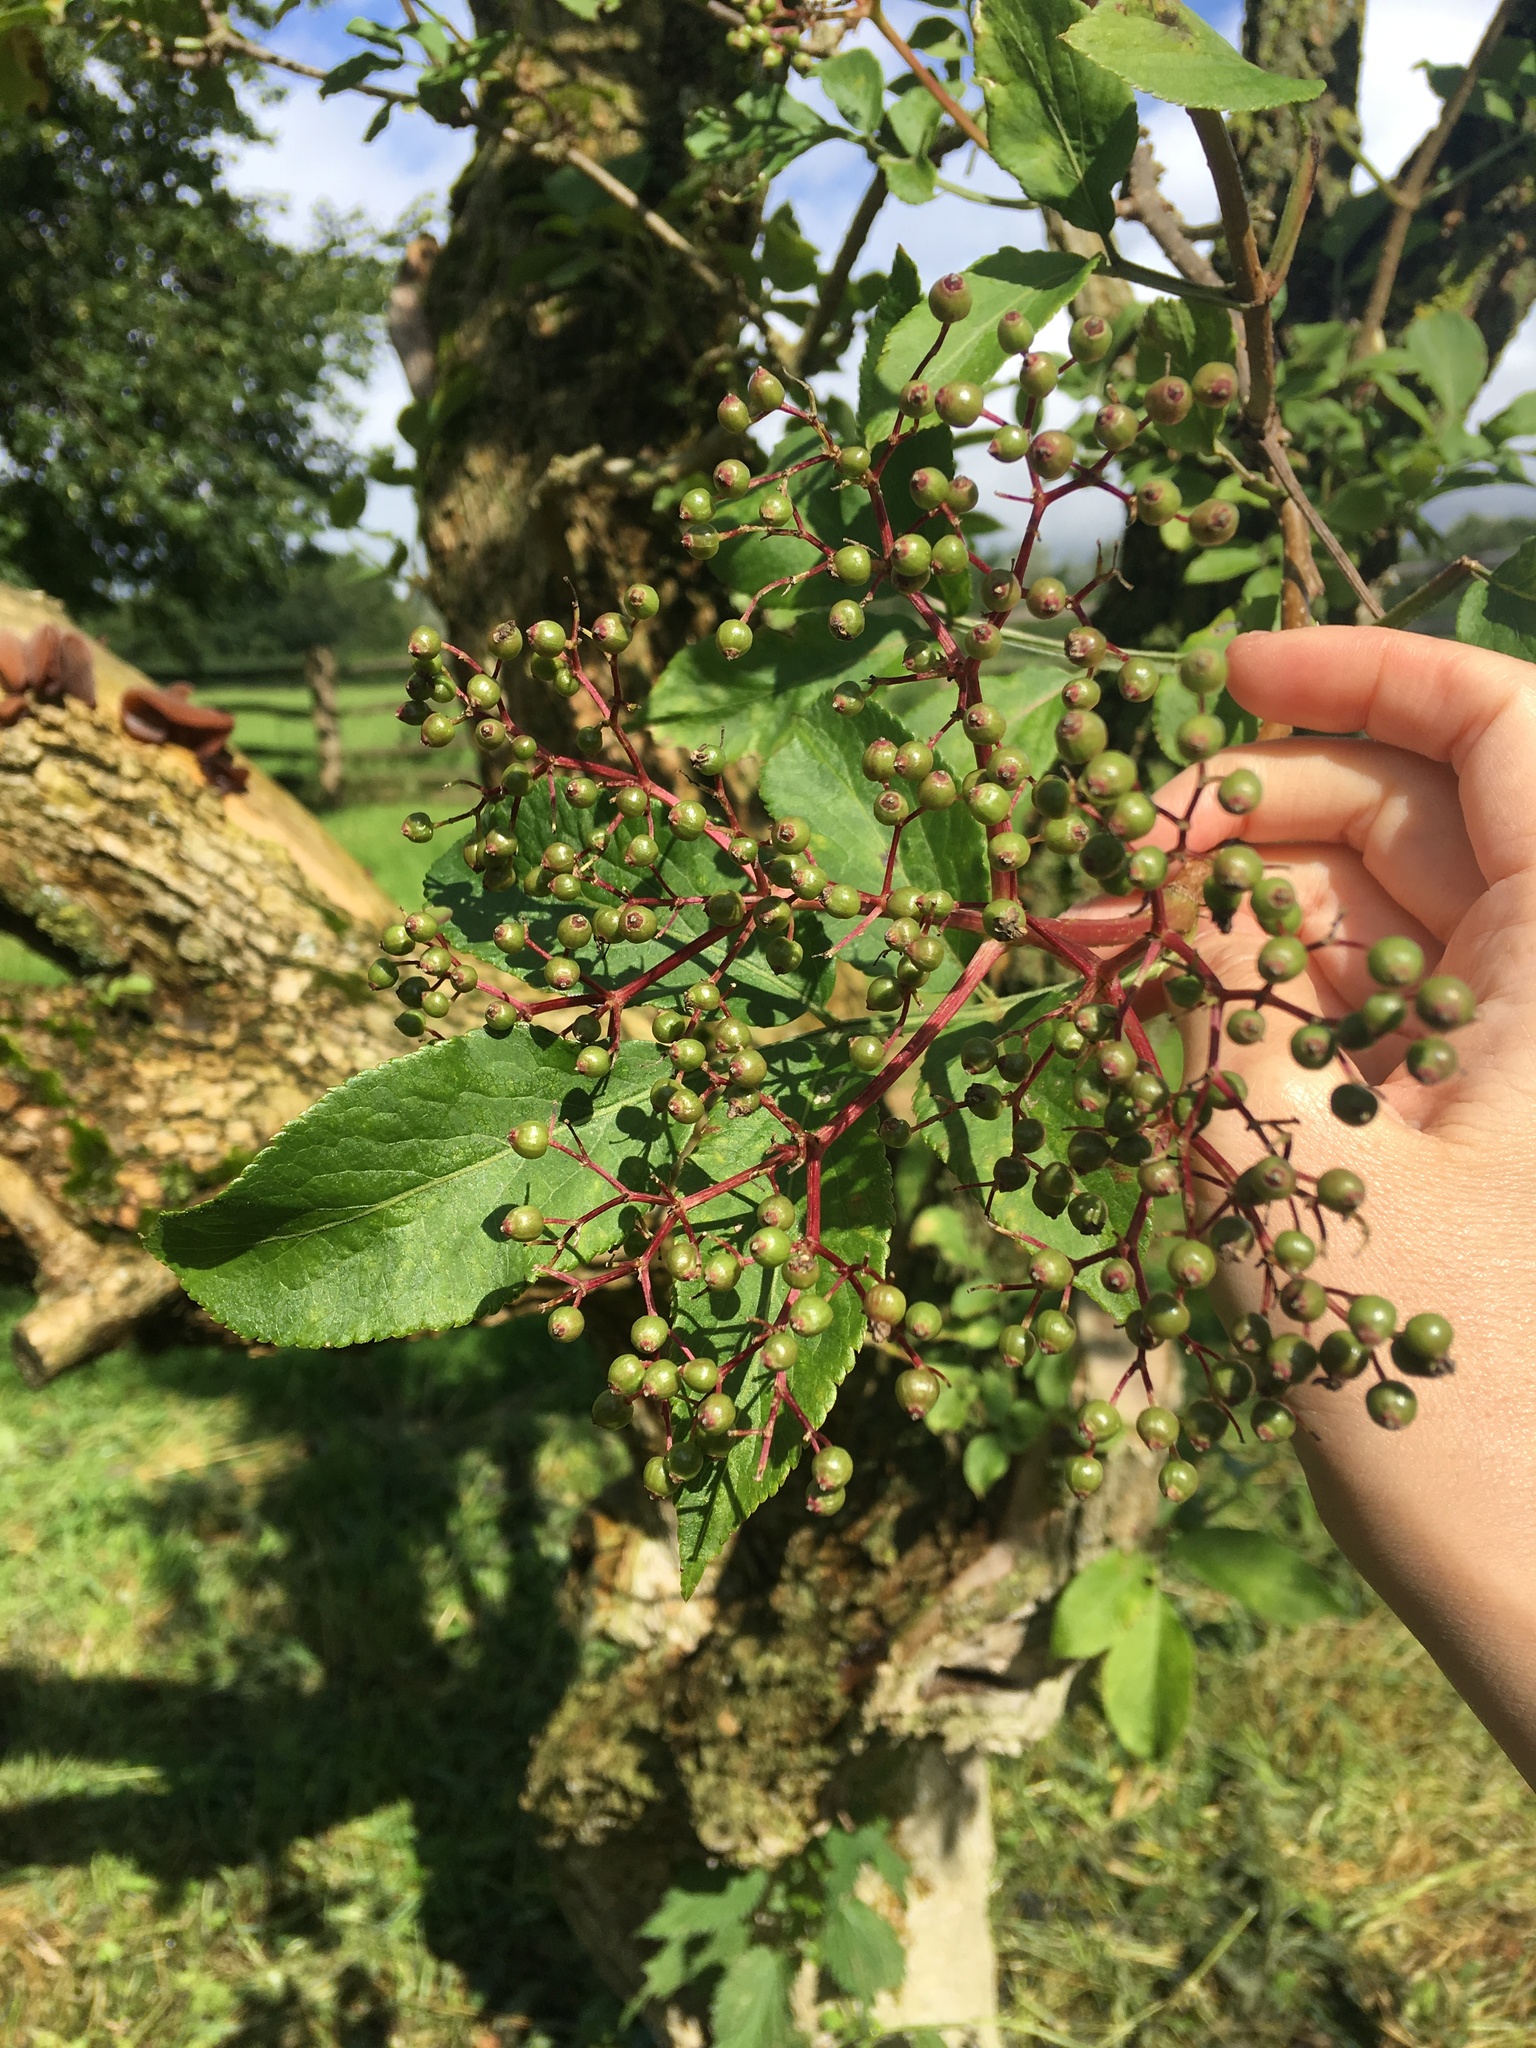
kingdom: Plantae
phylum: Tracheophyta
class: Magnoliopsida
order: Dipsacales
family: Viburnaceae
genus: Sambucus
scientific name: Sambucus nigra
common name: Elder
